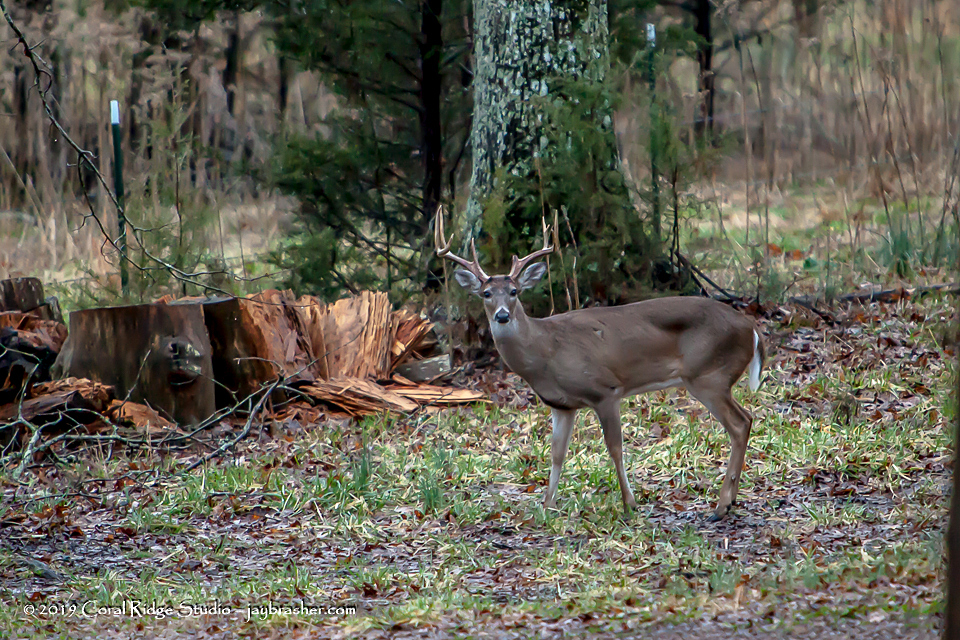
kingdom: Animalia
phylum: Chordata
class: Mammalia
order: Artiodactyla
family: Cervidae
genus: Odocoileus
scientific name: Odocoileus virginianus
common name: White-tailed deer
